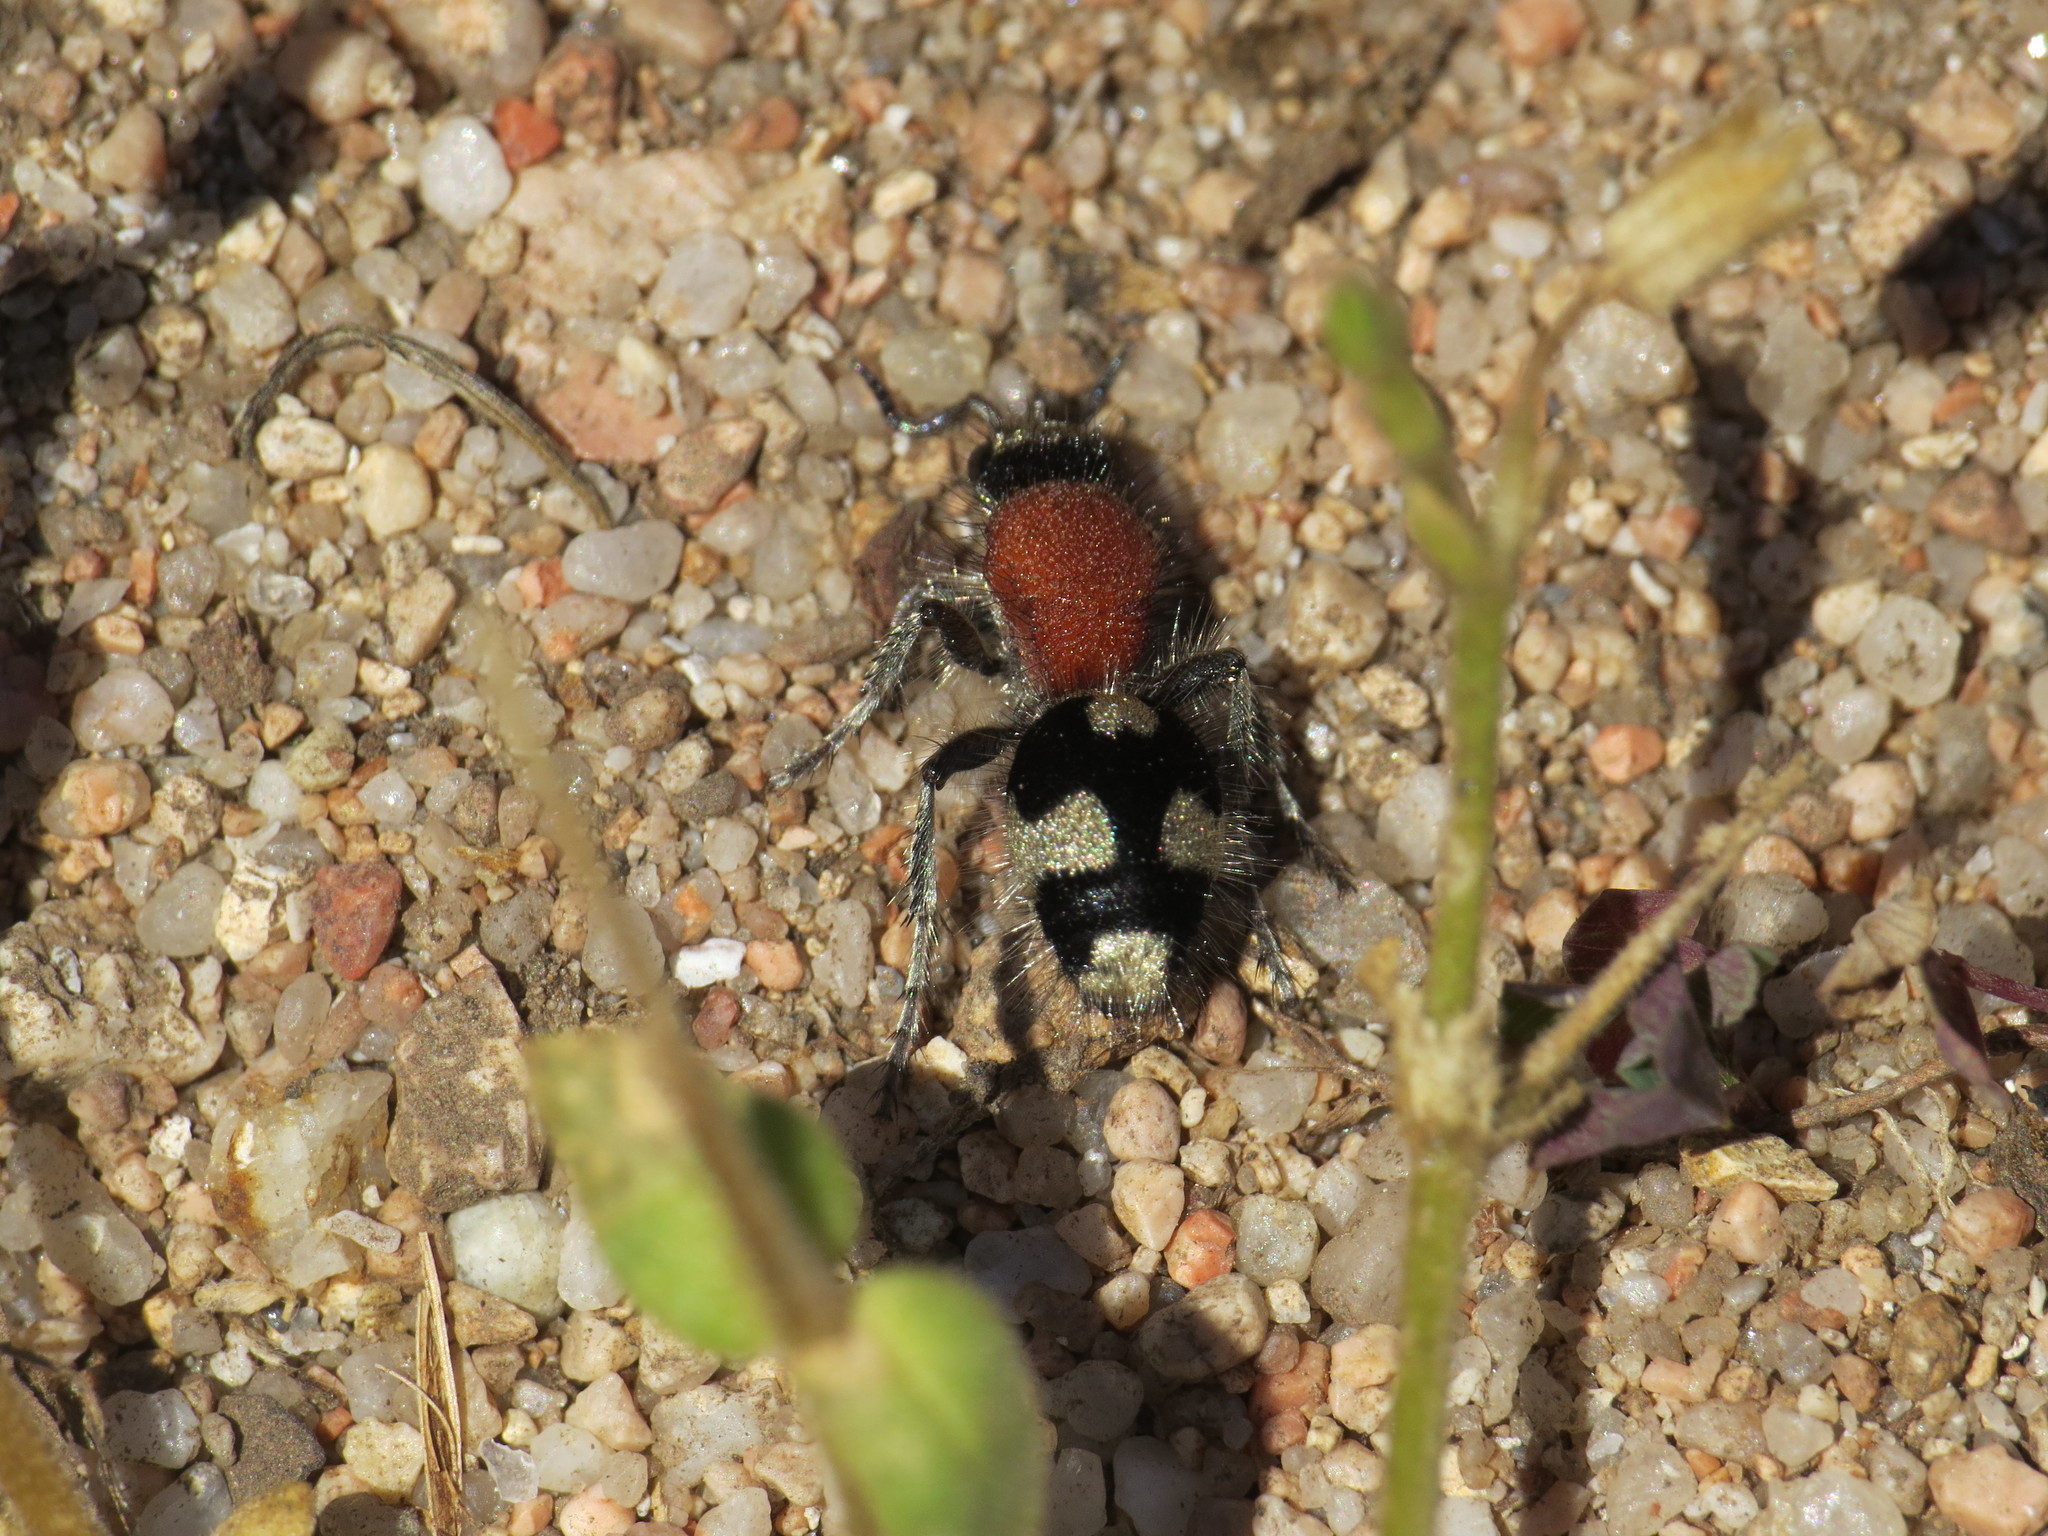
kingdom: Animalia
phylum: Arthropoda
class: Insecta
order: Hymenoptera
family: Mutillidae
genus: Dasylabris
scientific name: Dasylabris maura
